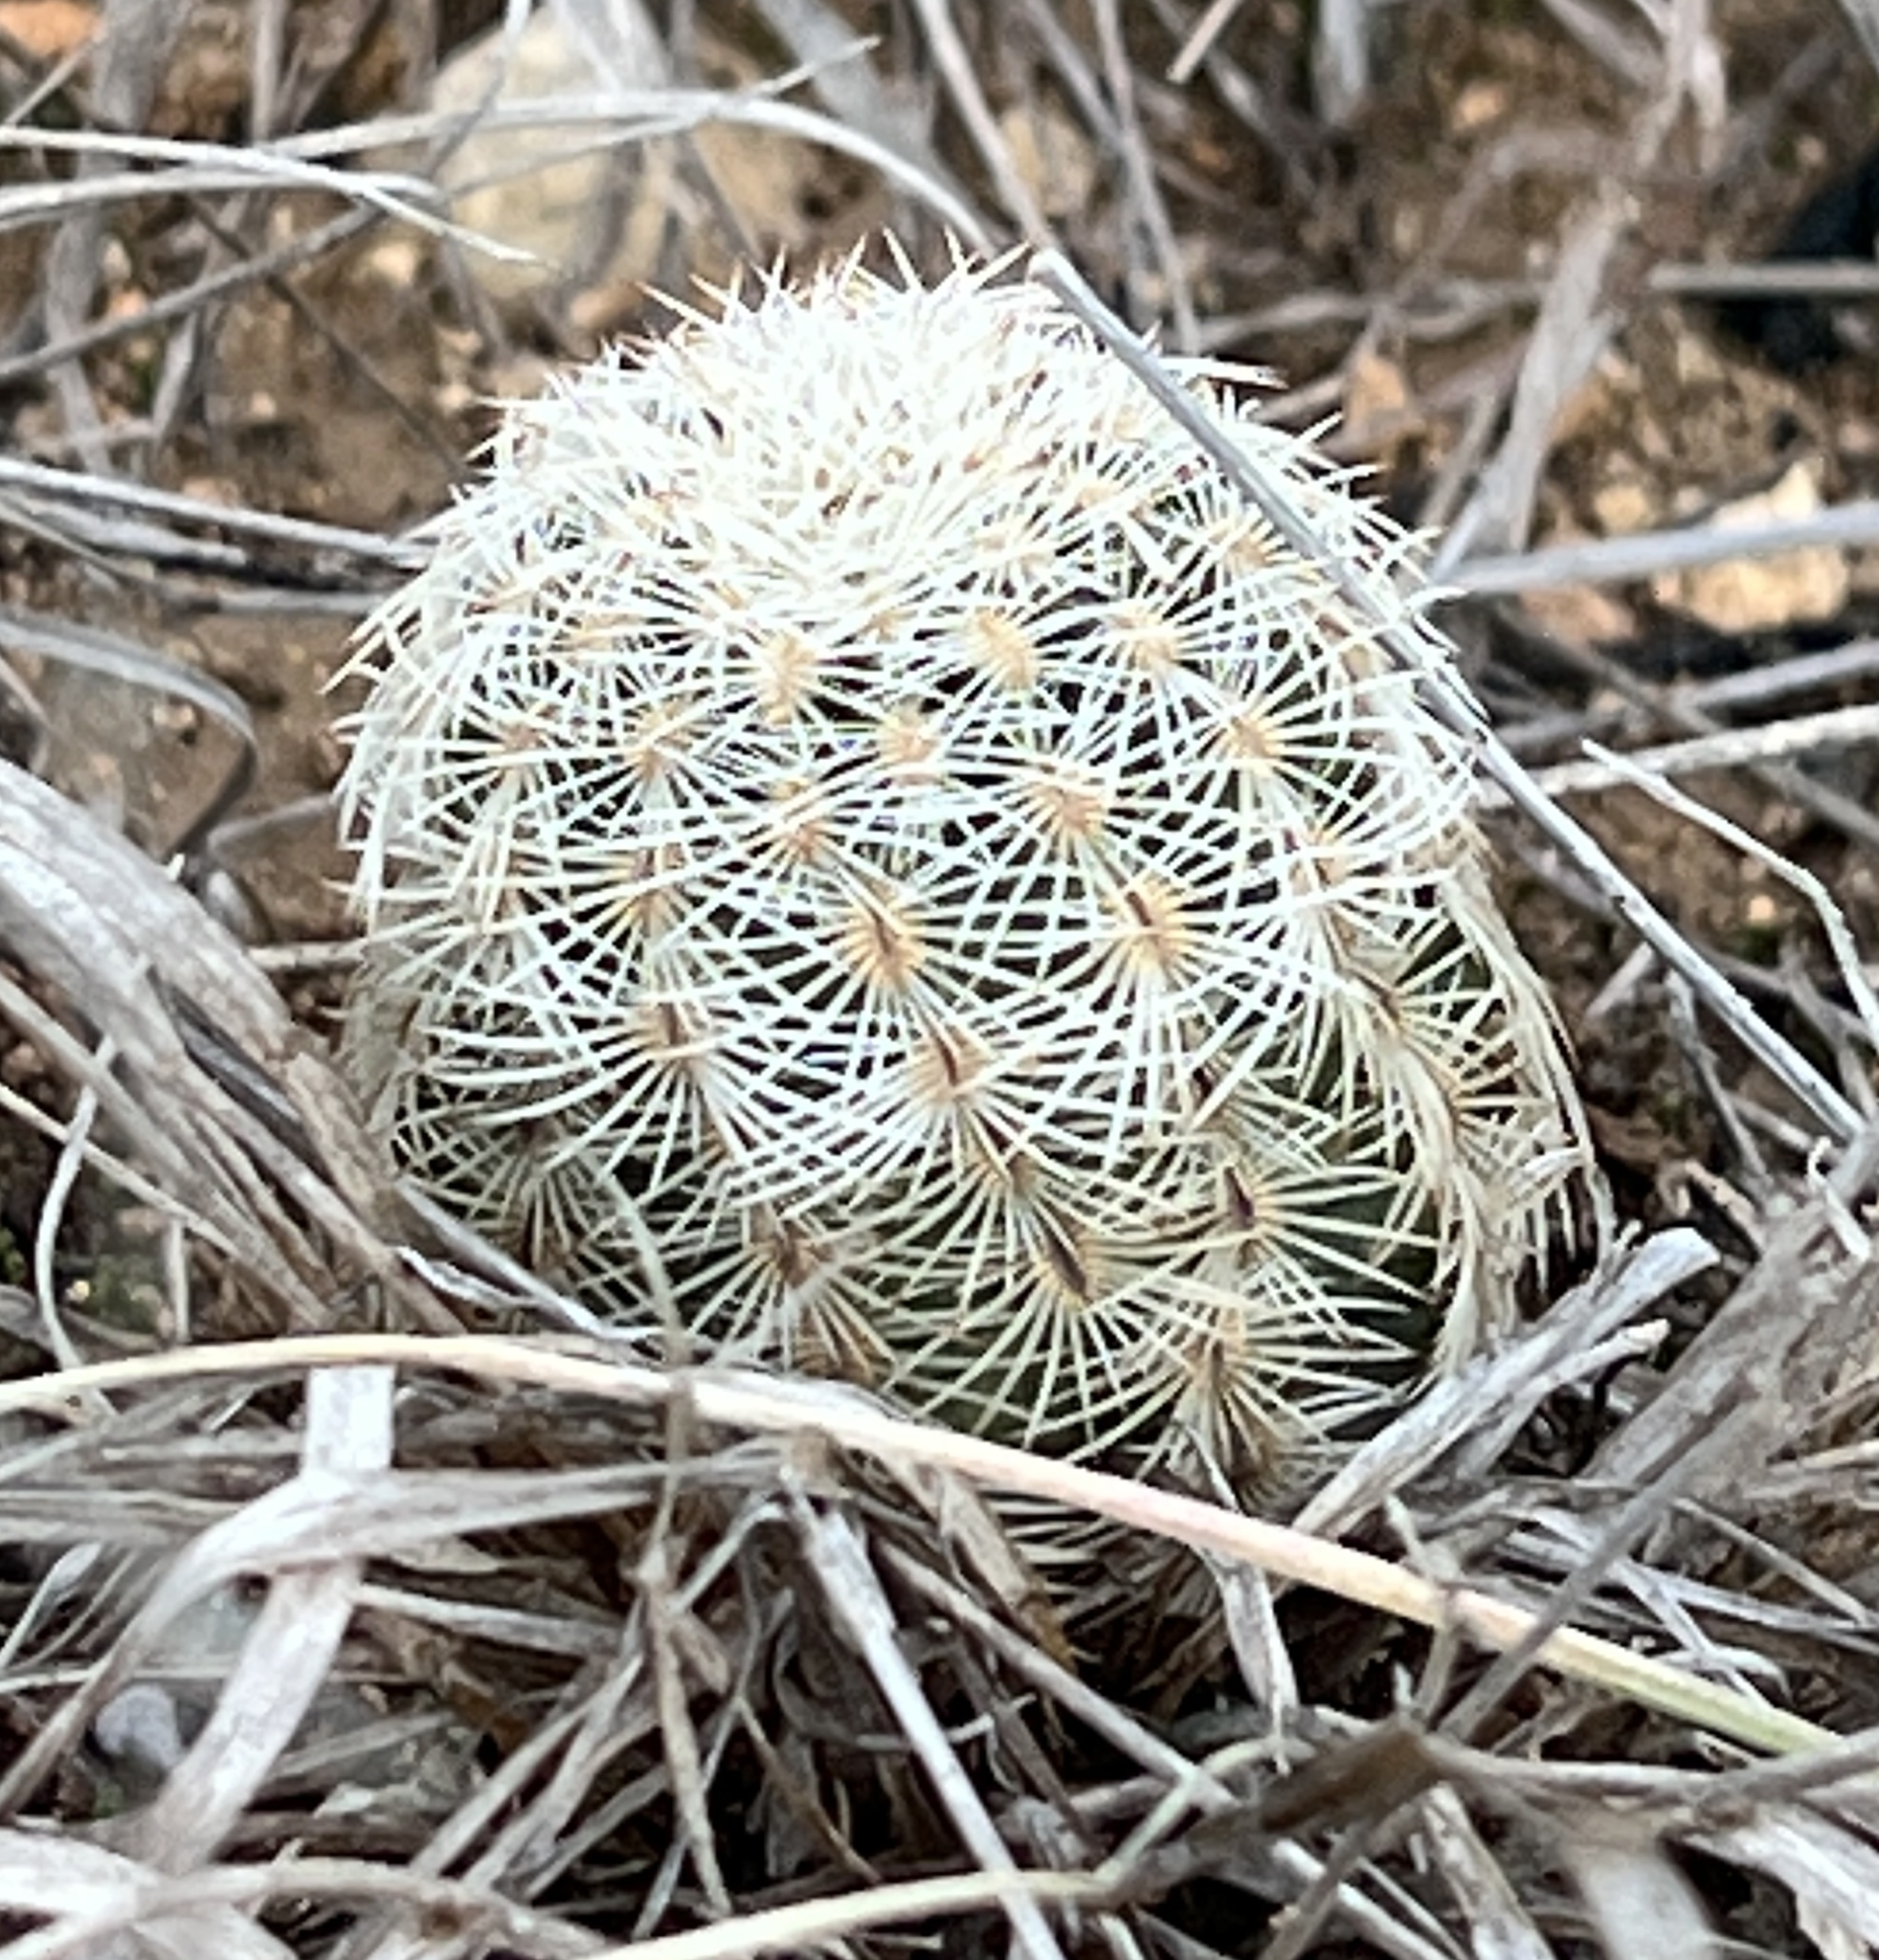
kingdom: Plantae
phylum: Tracheophyta
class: Magnoliopsida
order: Caryophyllales
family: Cactaceae
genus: Echinocereus
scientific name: Echinocereus reichenbachii
